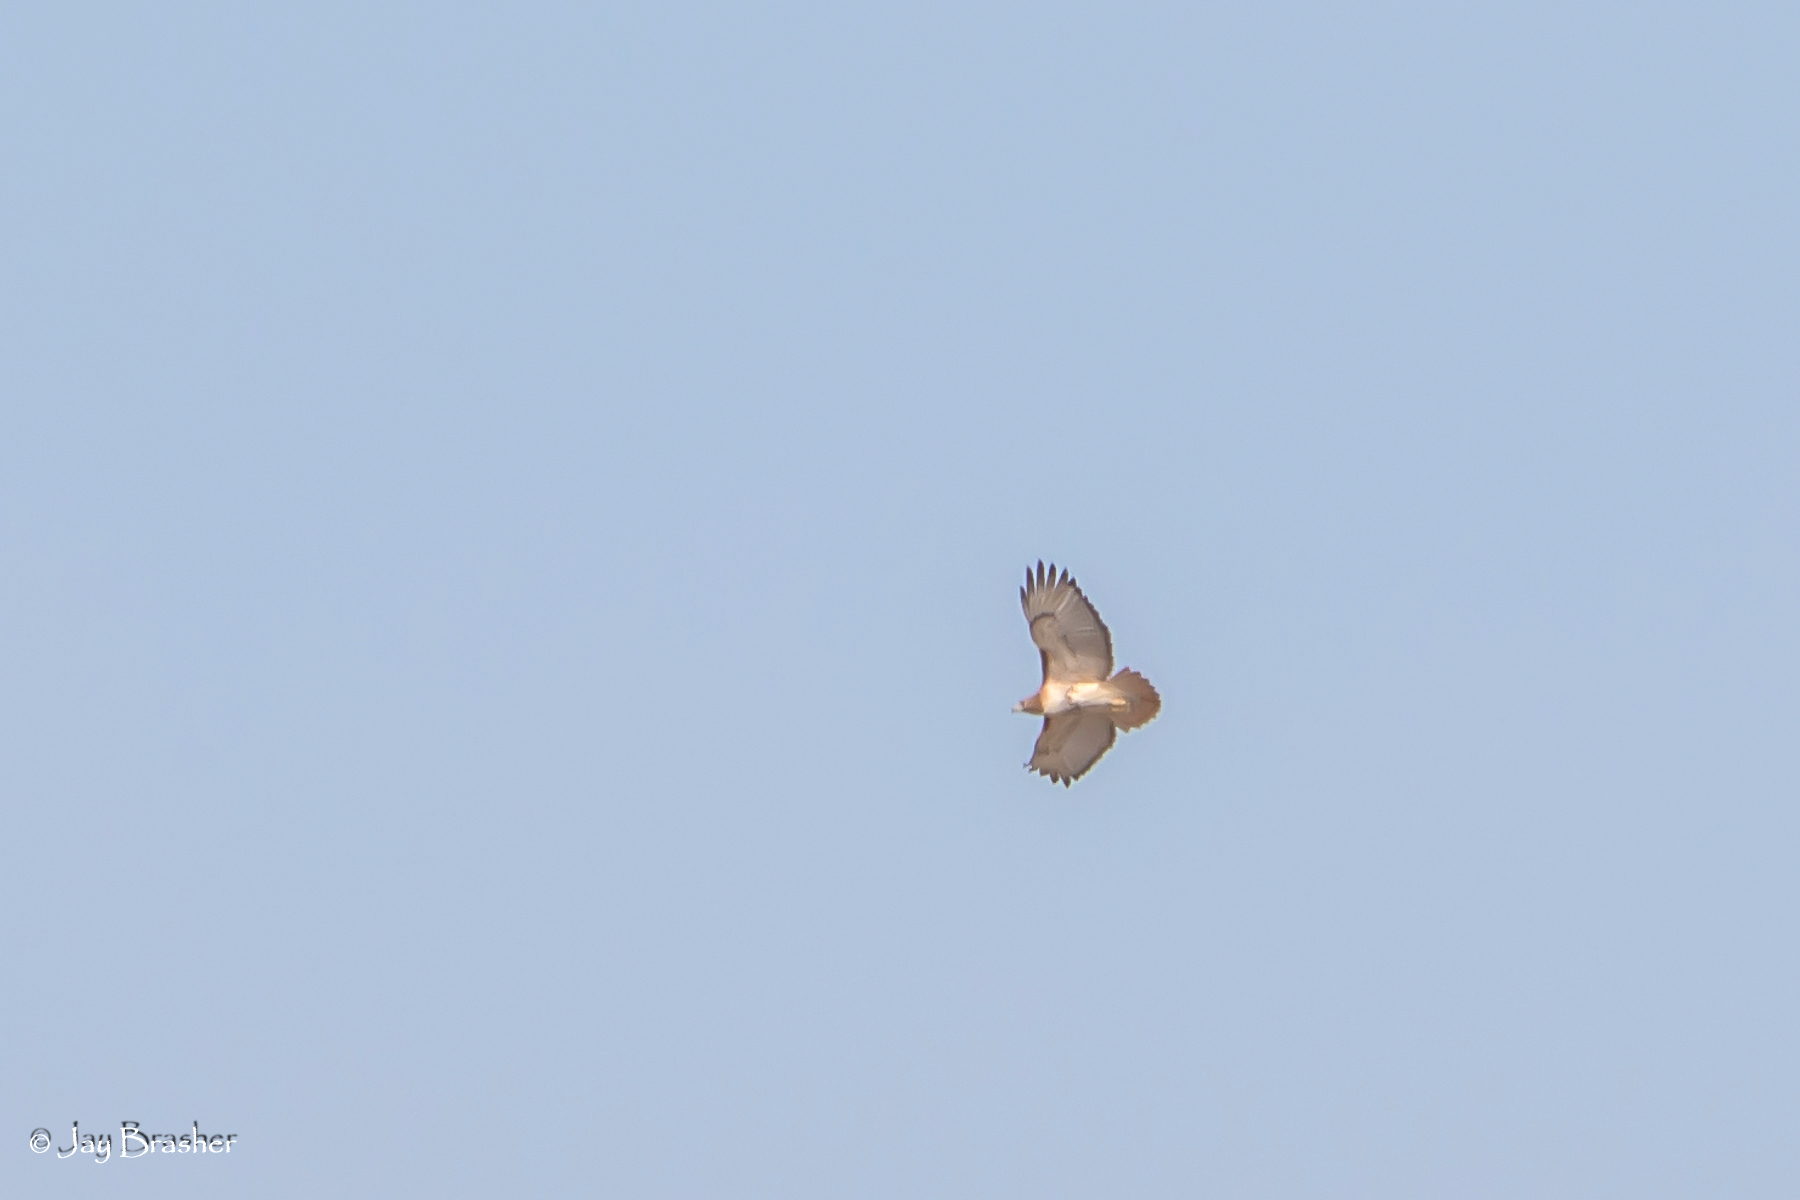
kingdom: Animalia
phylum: Chordata
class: Aves
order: Accipitriformes
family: Accipitridae
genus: Buteo
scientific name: Buteo jamaicensis
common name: Red-tailed hawk
